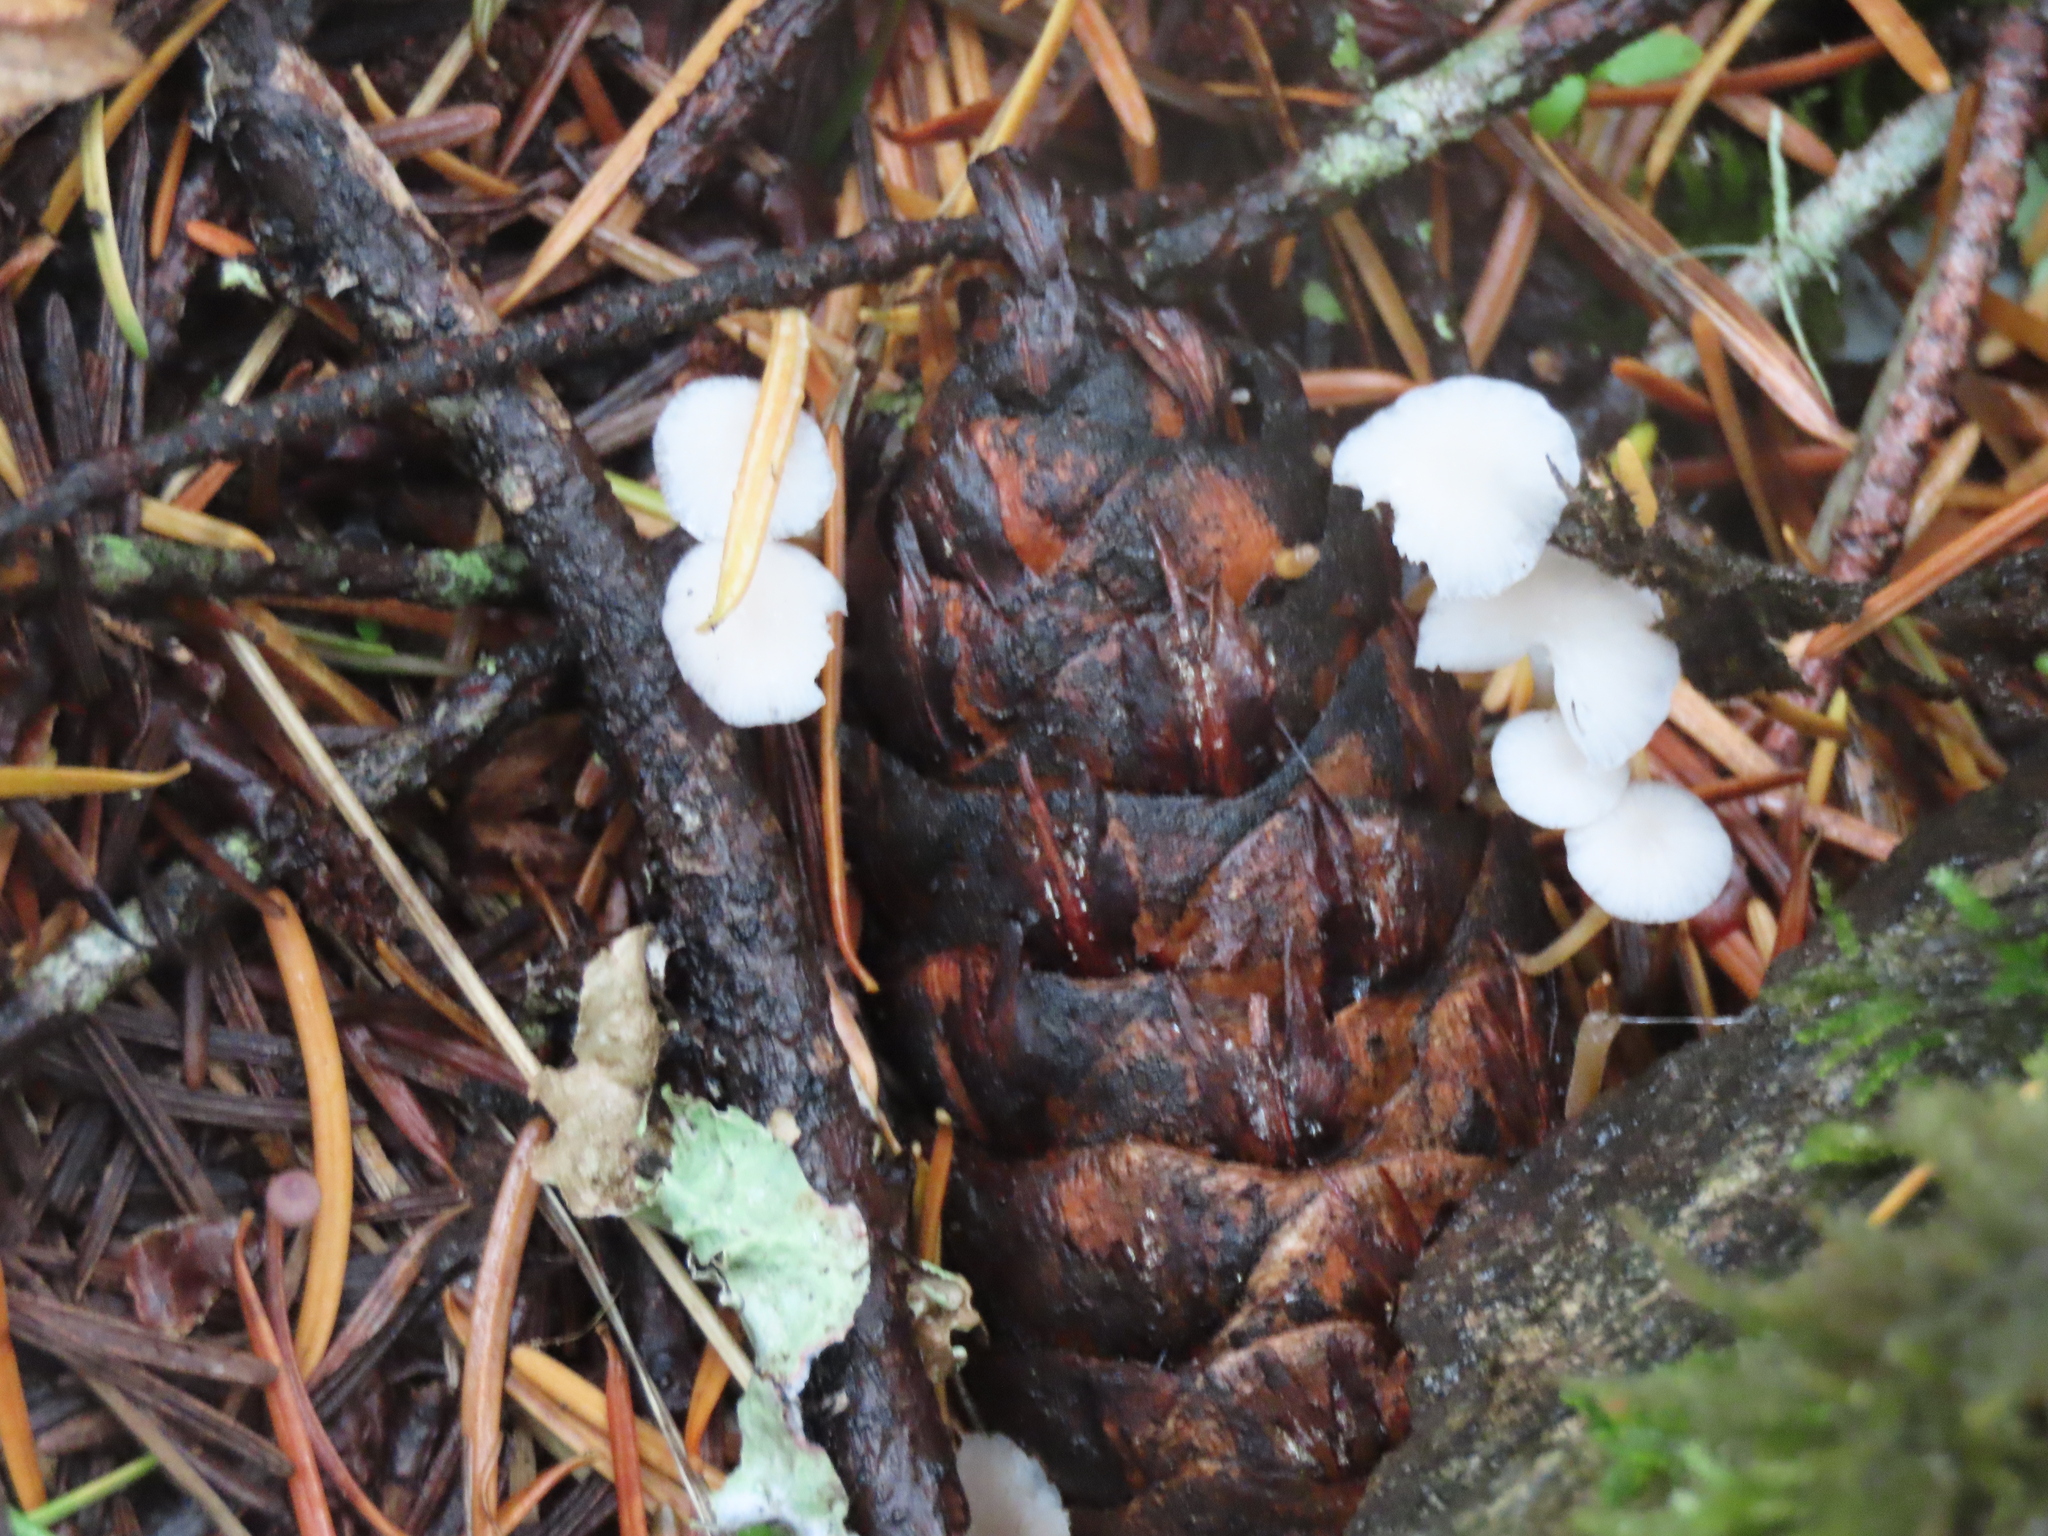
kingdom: Fungi
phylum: Basidiomycota
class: Agaricomycetes
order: Agaricales
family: Physalacriaceae
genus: Strobilurus
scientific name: Strobilurus trullisatus
